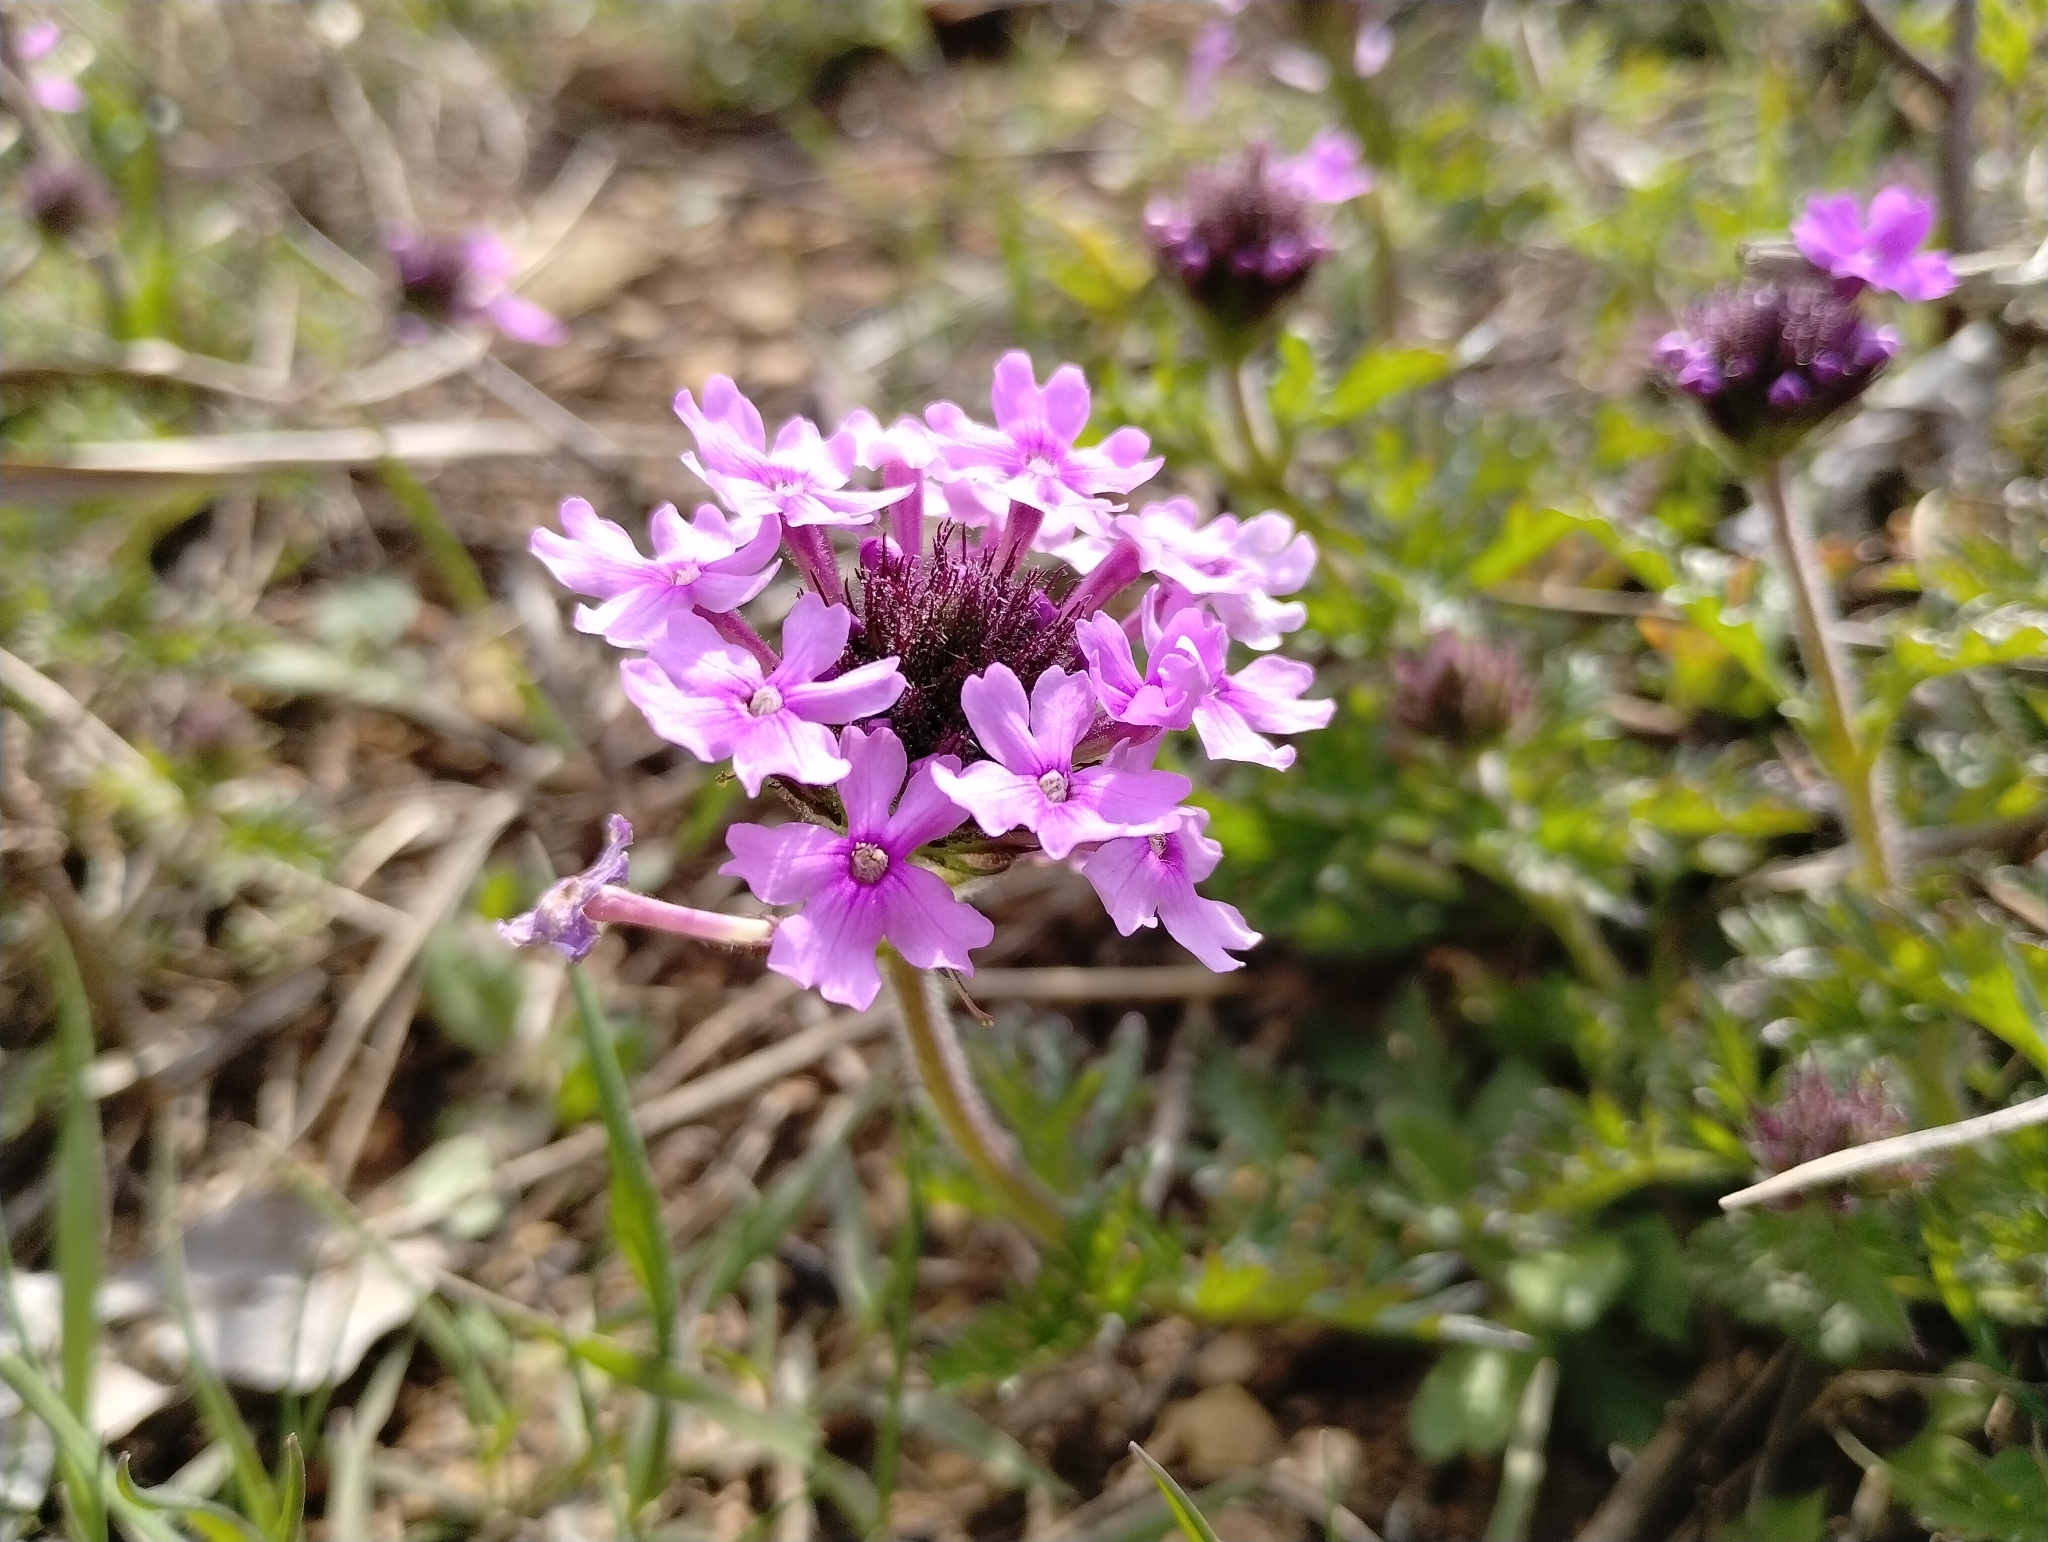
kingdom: Plantae
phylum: Tracheophyta
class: Magnoliopsida
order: Lamiales
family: Verbenaceae
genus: Verbena
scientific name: Verbena canadensis
